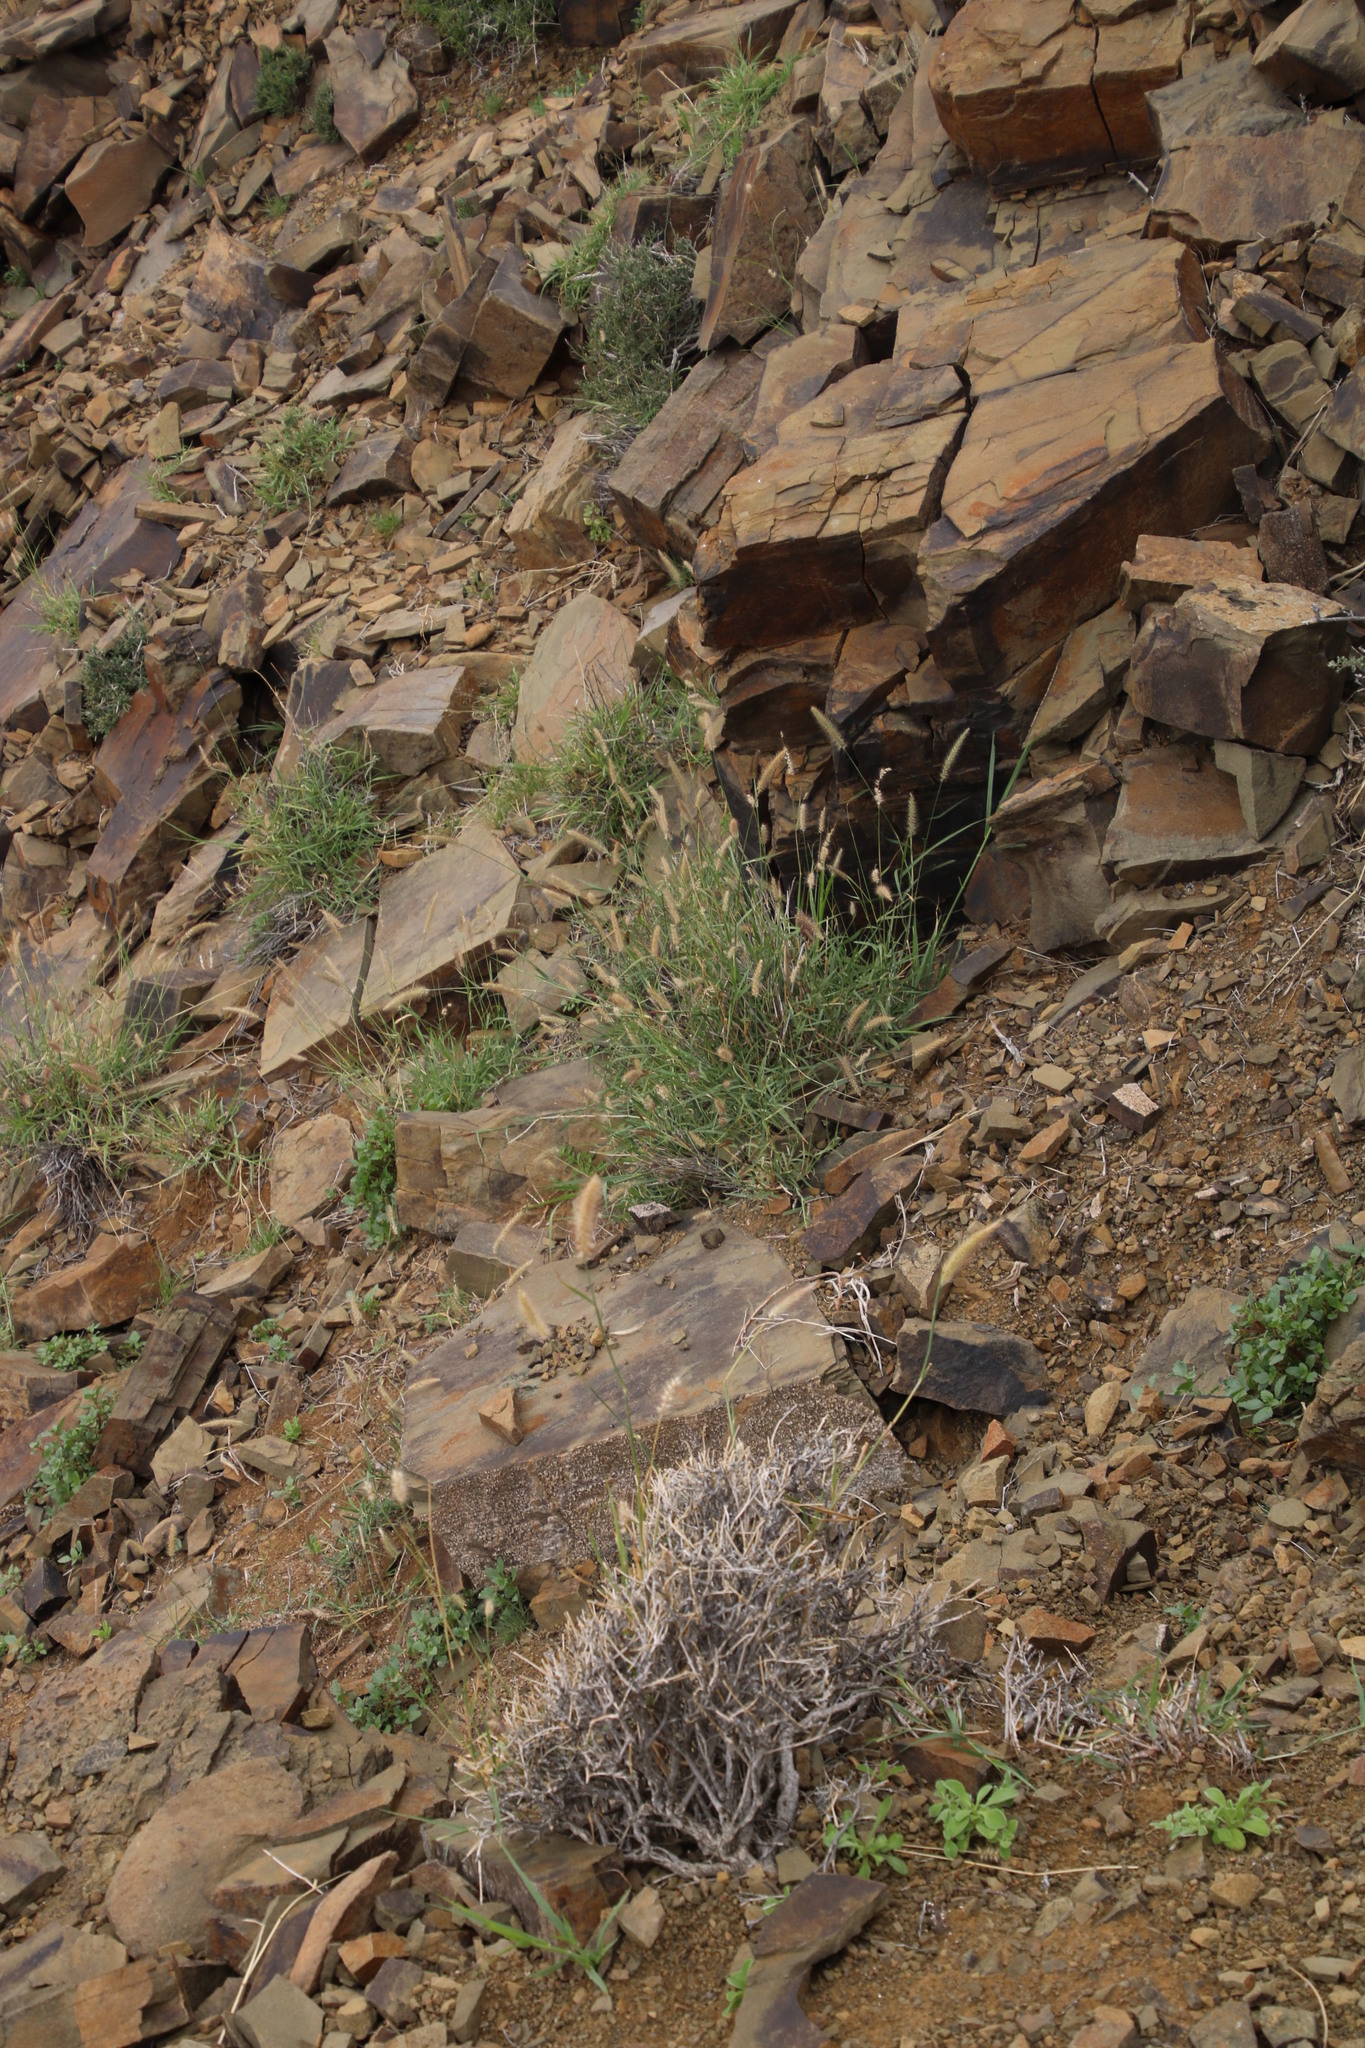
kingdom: Plantae
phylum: Tracheophyta
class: Liliopsida
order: Poales
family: Poaceae
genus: Cenchrus
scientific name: Cenchrus ciliaris
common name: Buffelgrass
